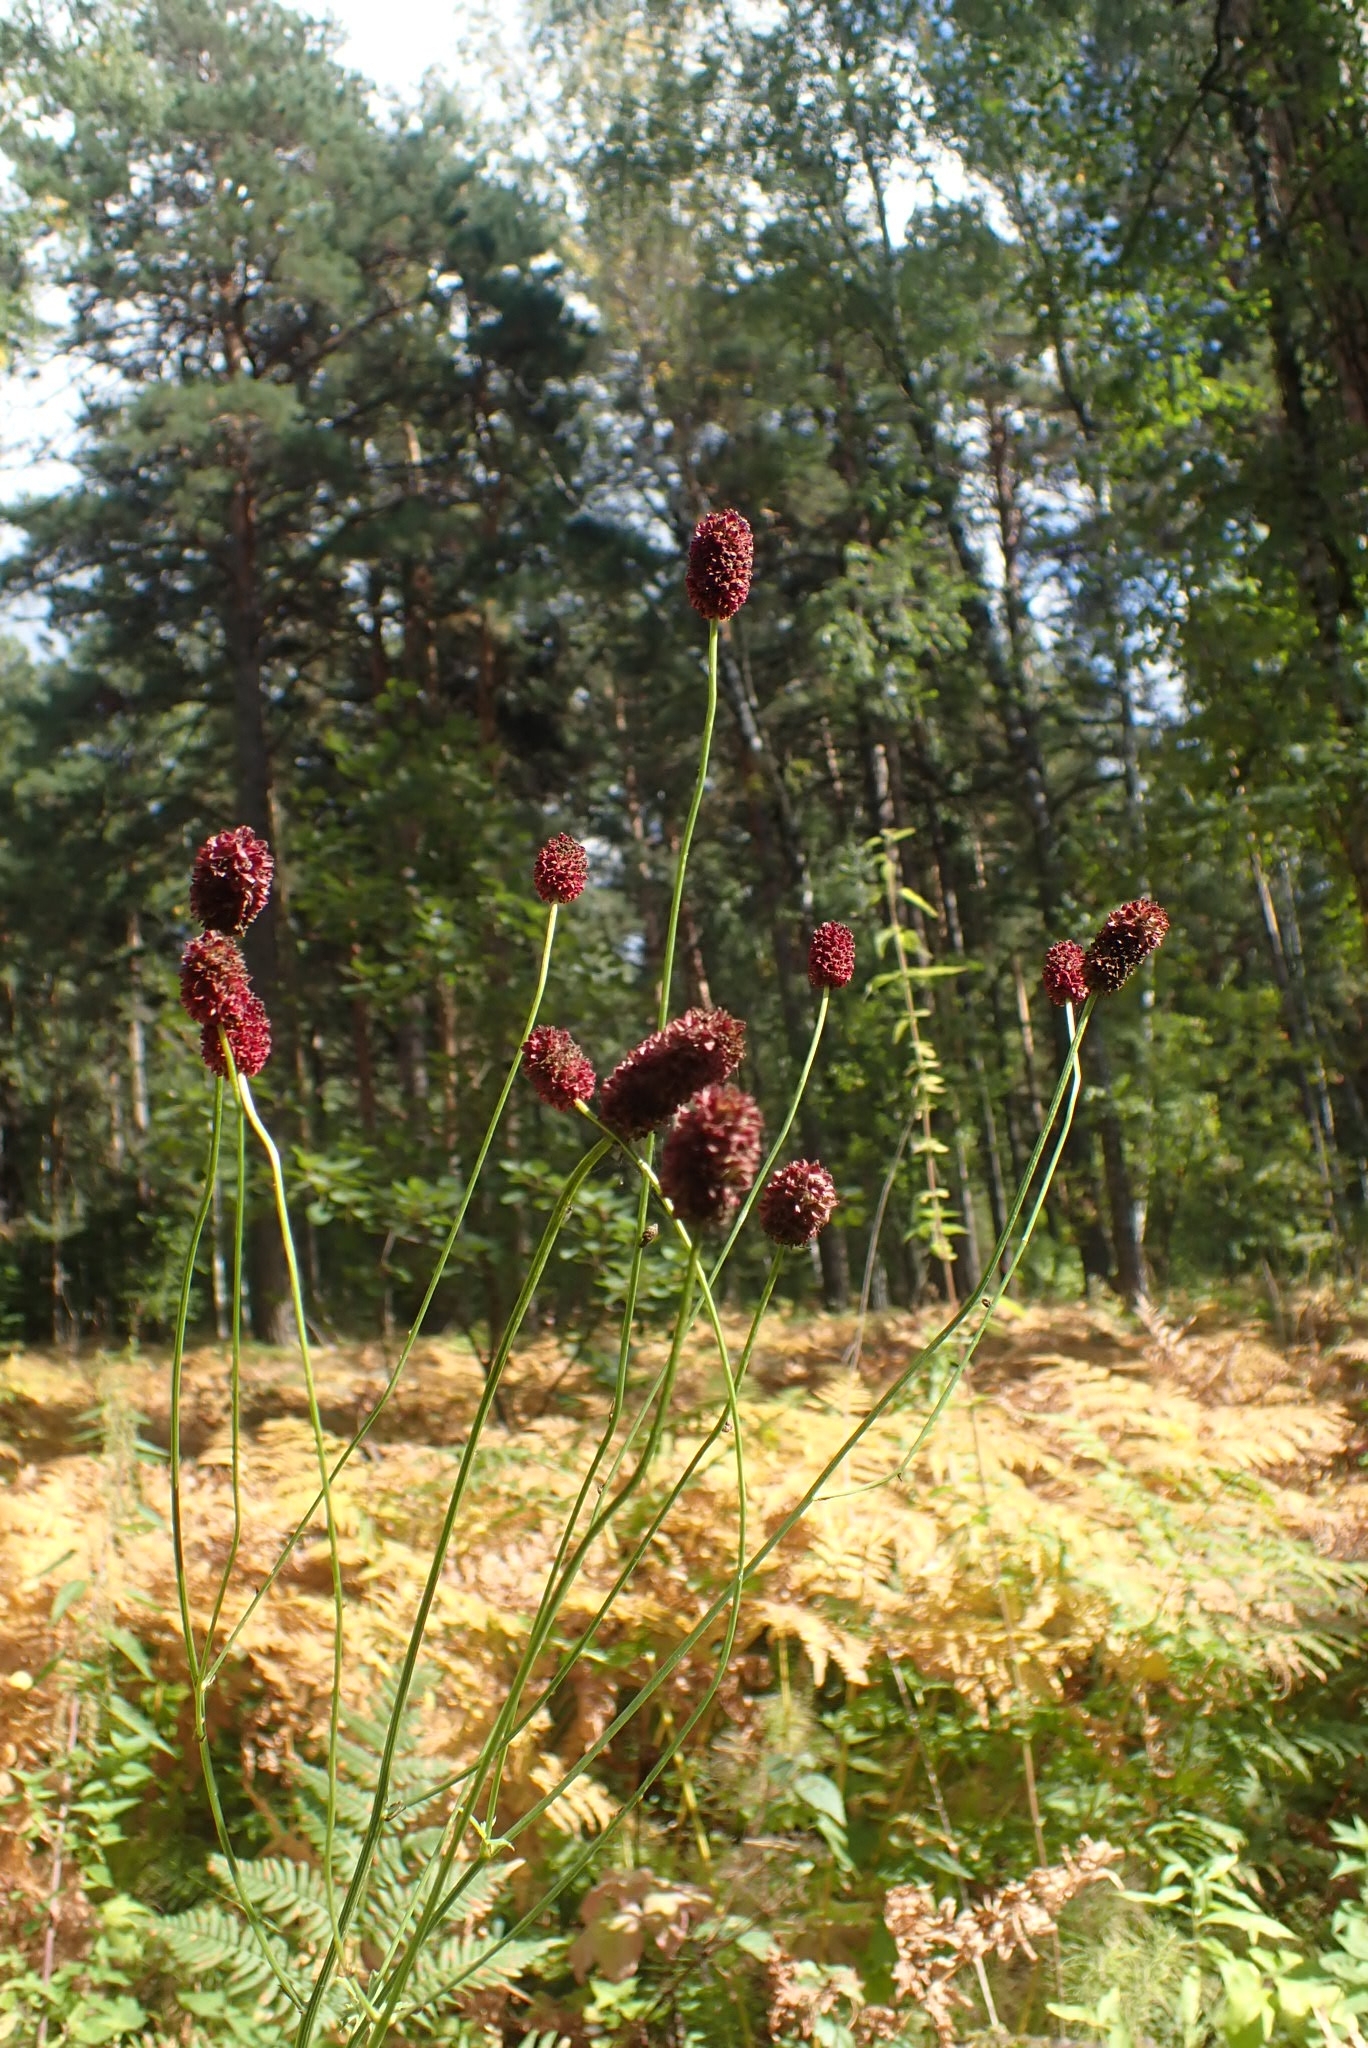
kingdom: Plantae
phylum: Tracheophyta
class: Magnoliopsida
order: Rosales
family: Rosaceae
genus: Sanguisorba
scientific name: Sanguisorba officinalis
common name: Great burnet
